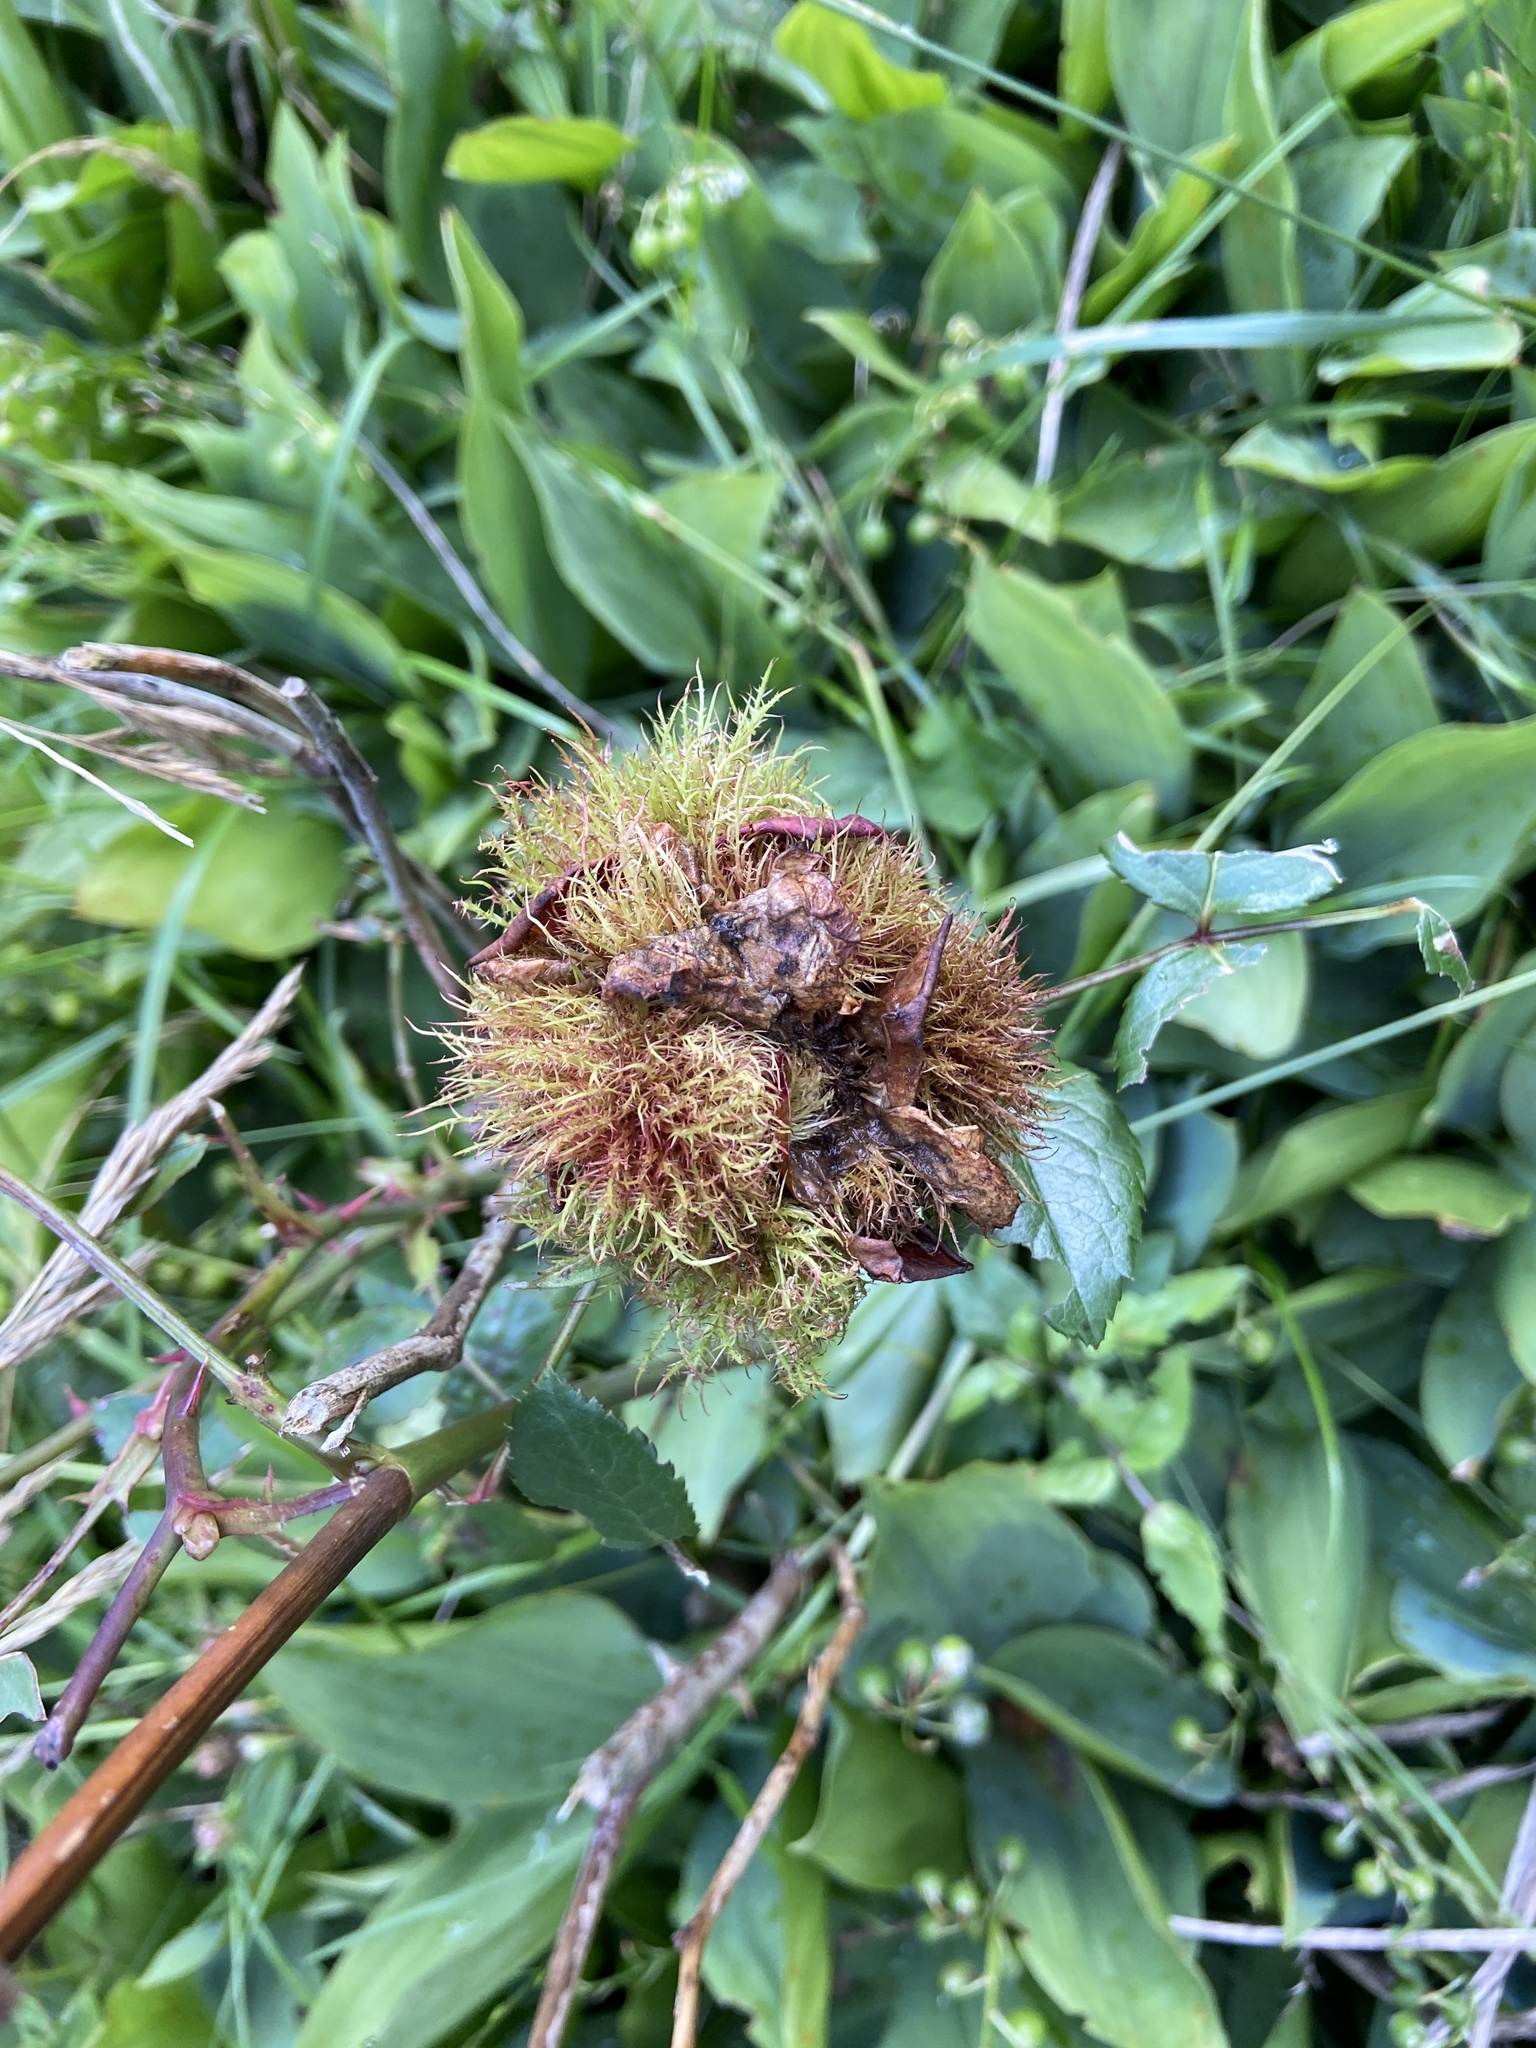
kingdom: Animalia
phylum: Arthropoda
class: Insecta
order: Hymenoptera
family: Cynipidae
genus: Diplolepis
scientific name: Diplolepis rosae
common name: Bedeguar gall
